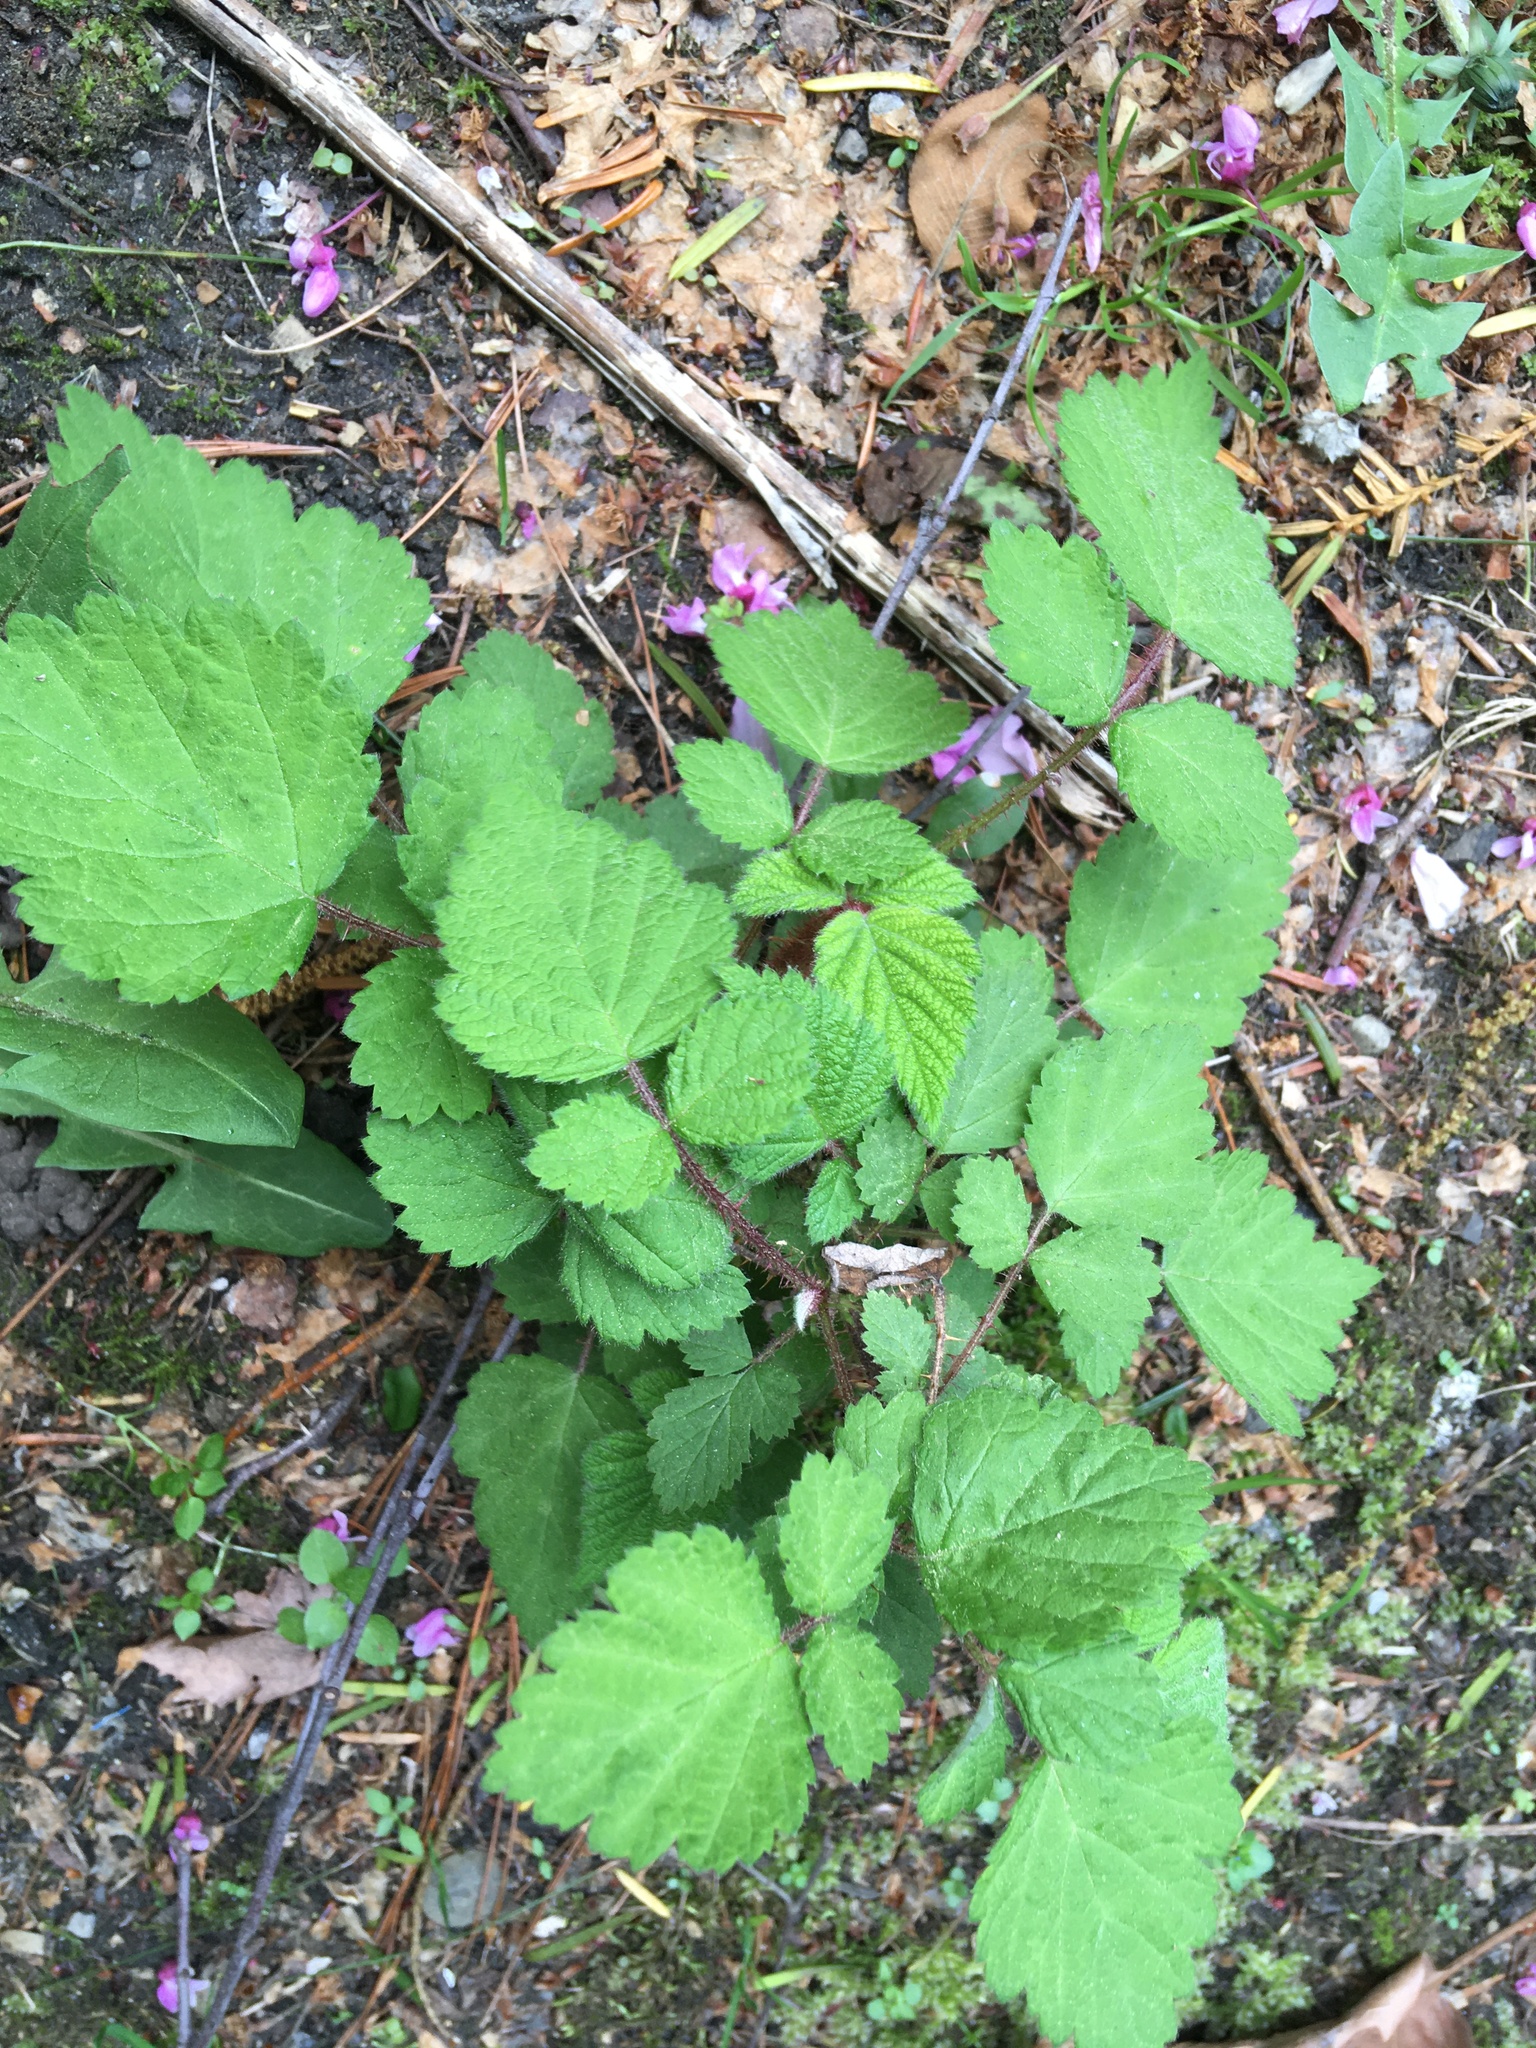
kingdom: Plantae
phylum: Tracheophyta
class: Magnoliopsida
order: Rosales
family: Rosaceae
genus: Rubus
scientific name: Rubus phoenicolasius
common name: Japanese wineberry
